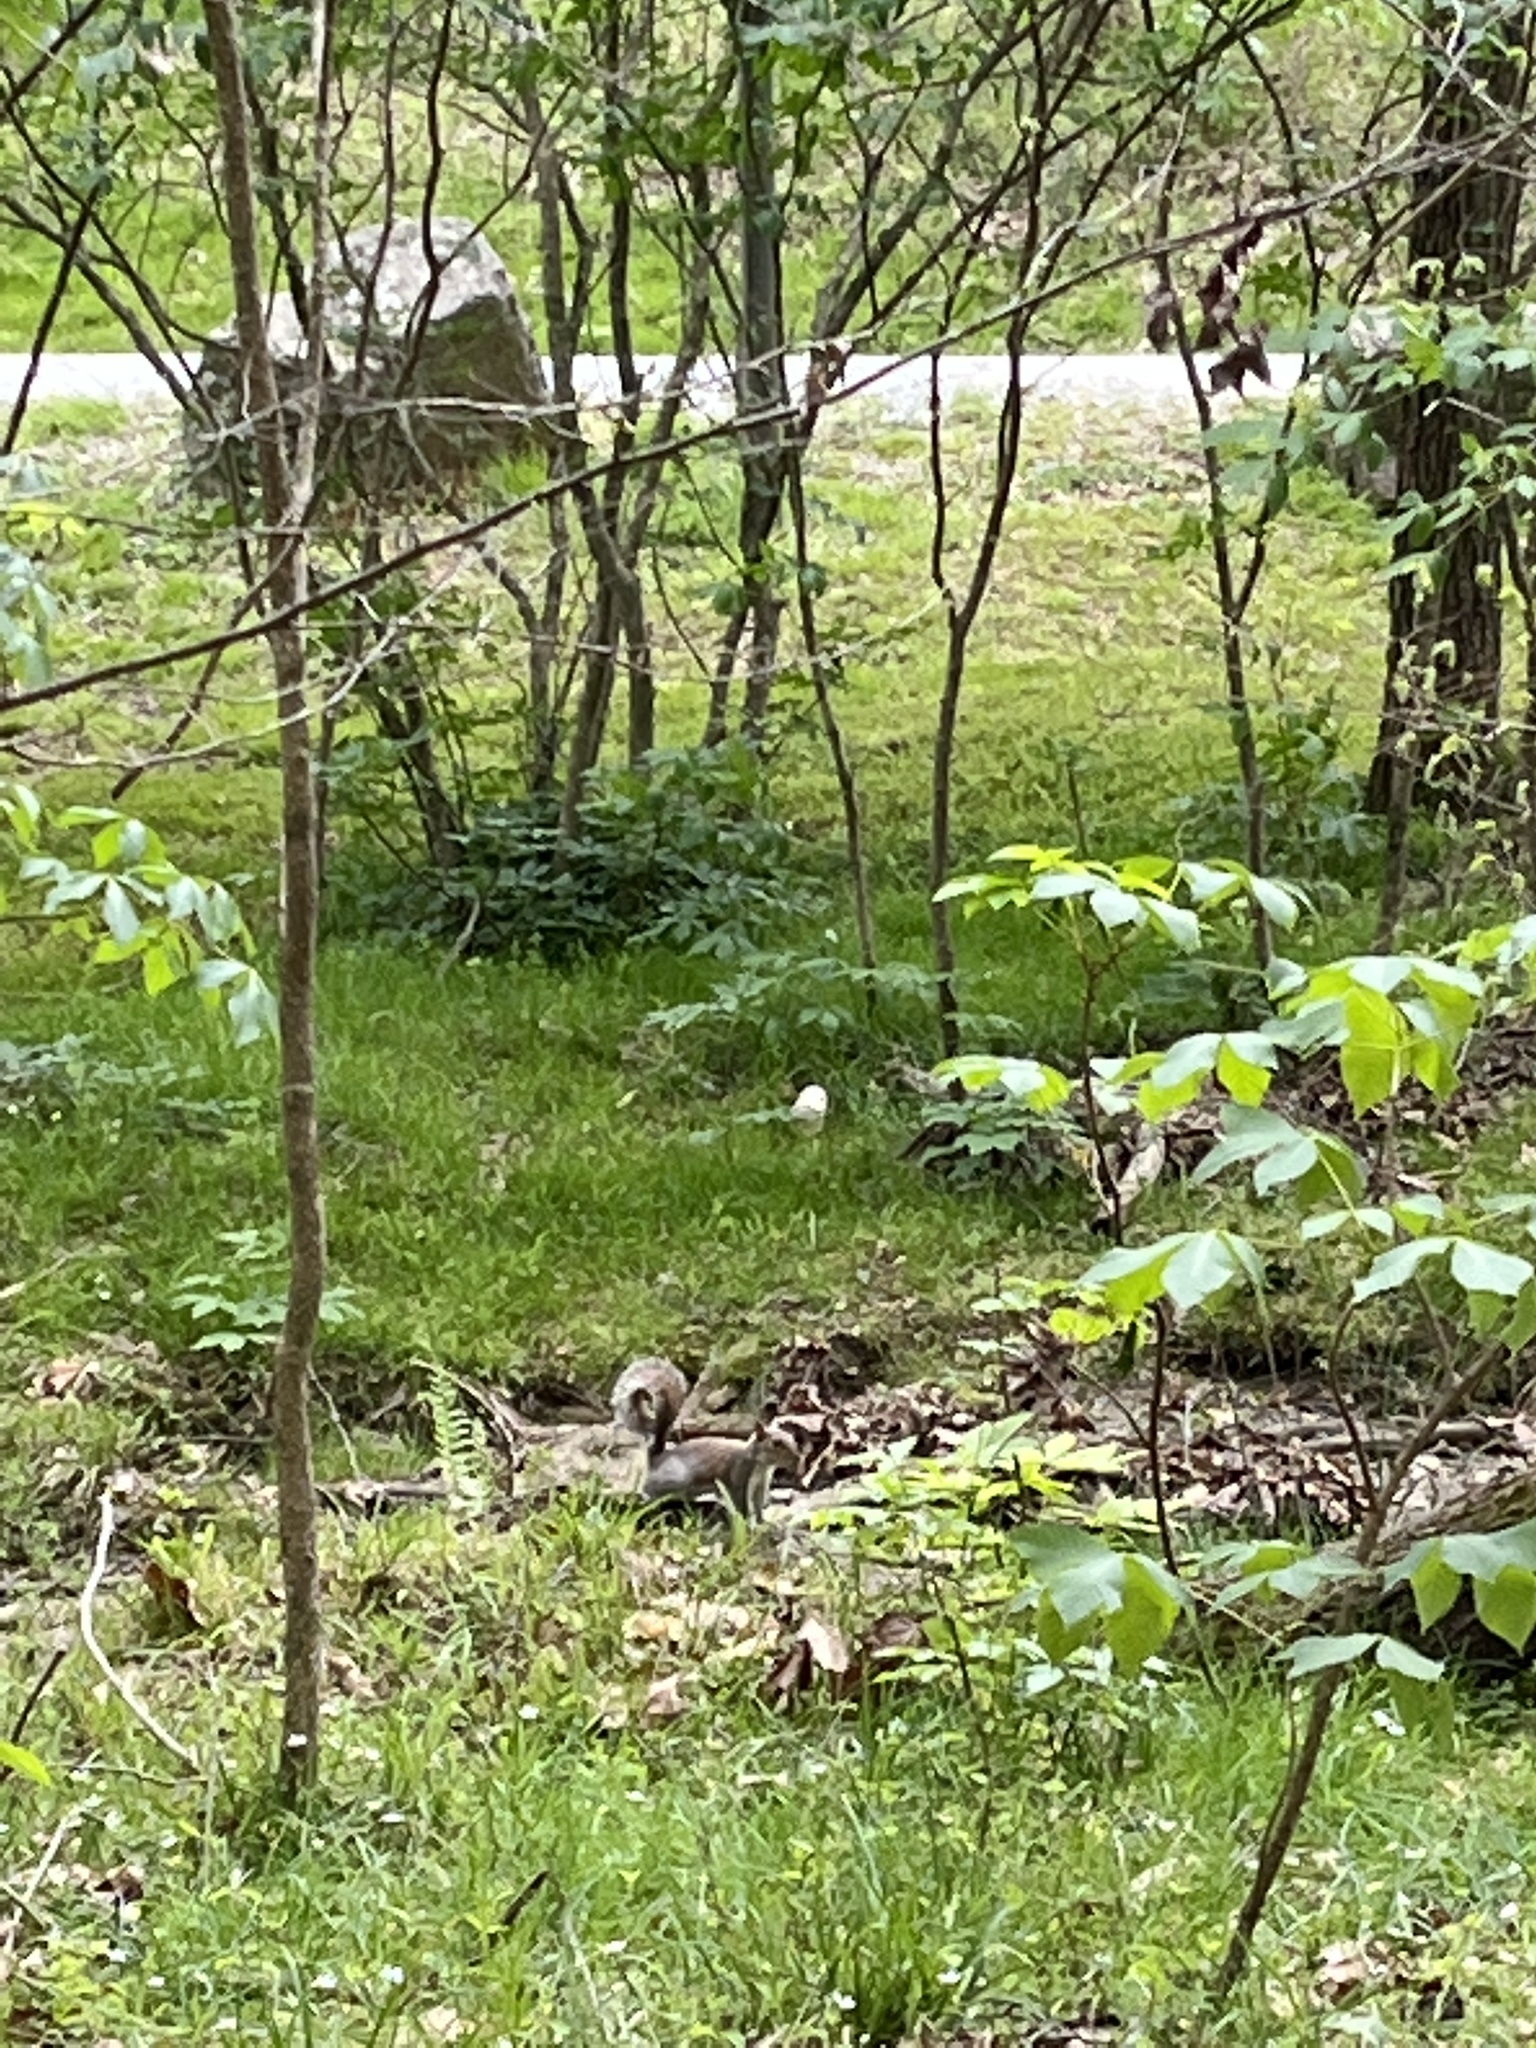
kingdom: Animalia
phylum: Chordata
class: Mammalia
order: Rodentia
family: Sciuridae
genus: Sciurus
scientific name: Sciurus carolinensis
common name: Eastern gray squirrel
